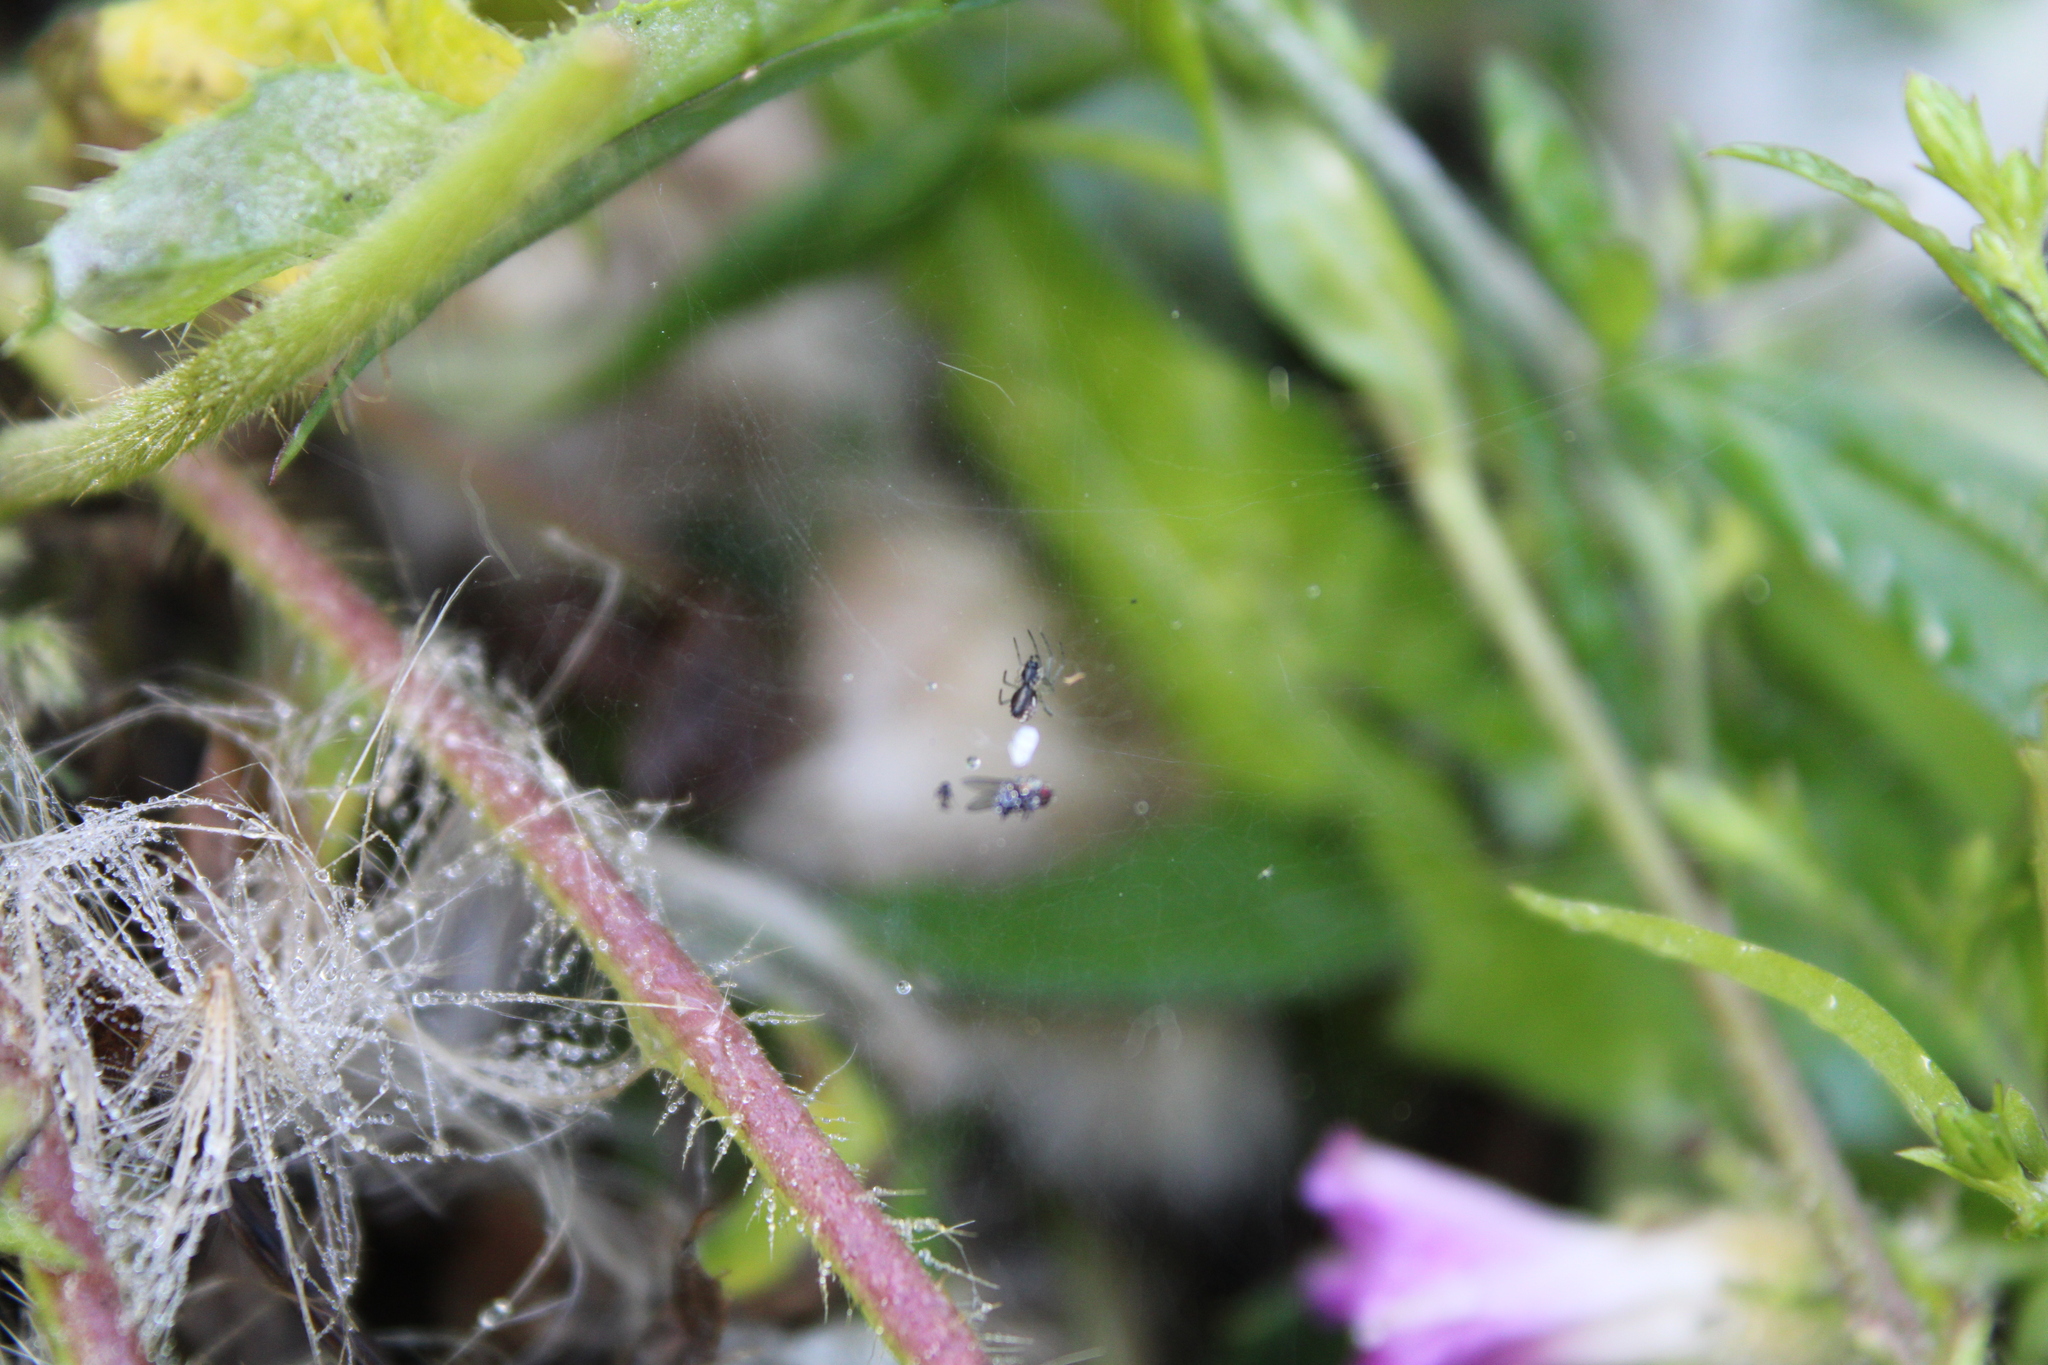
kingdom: Animalia
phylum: Arthropoda
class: Arachnida
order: Araneae
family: Linyphiidae
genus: Frontinella
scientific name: Frontinella pyramitela
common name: Bowl-and-doily spider
